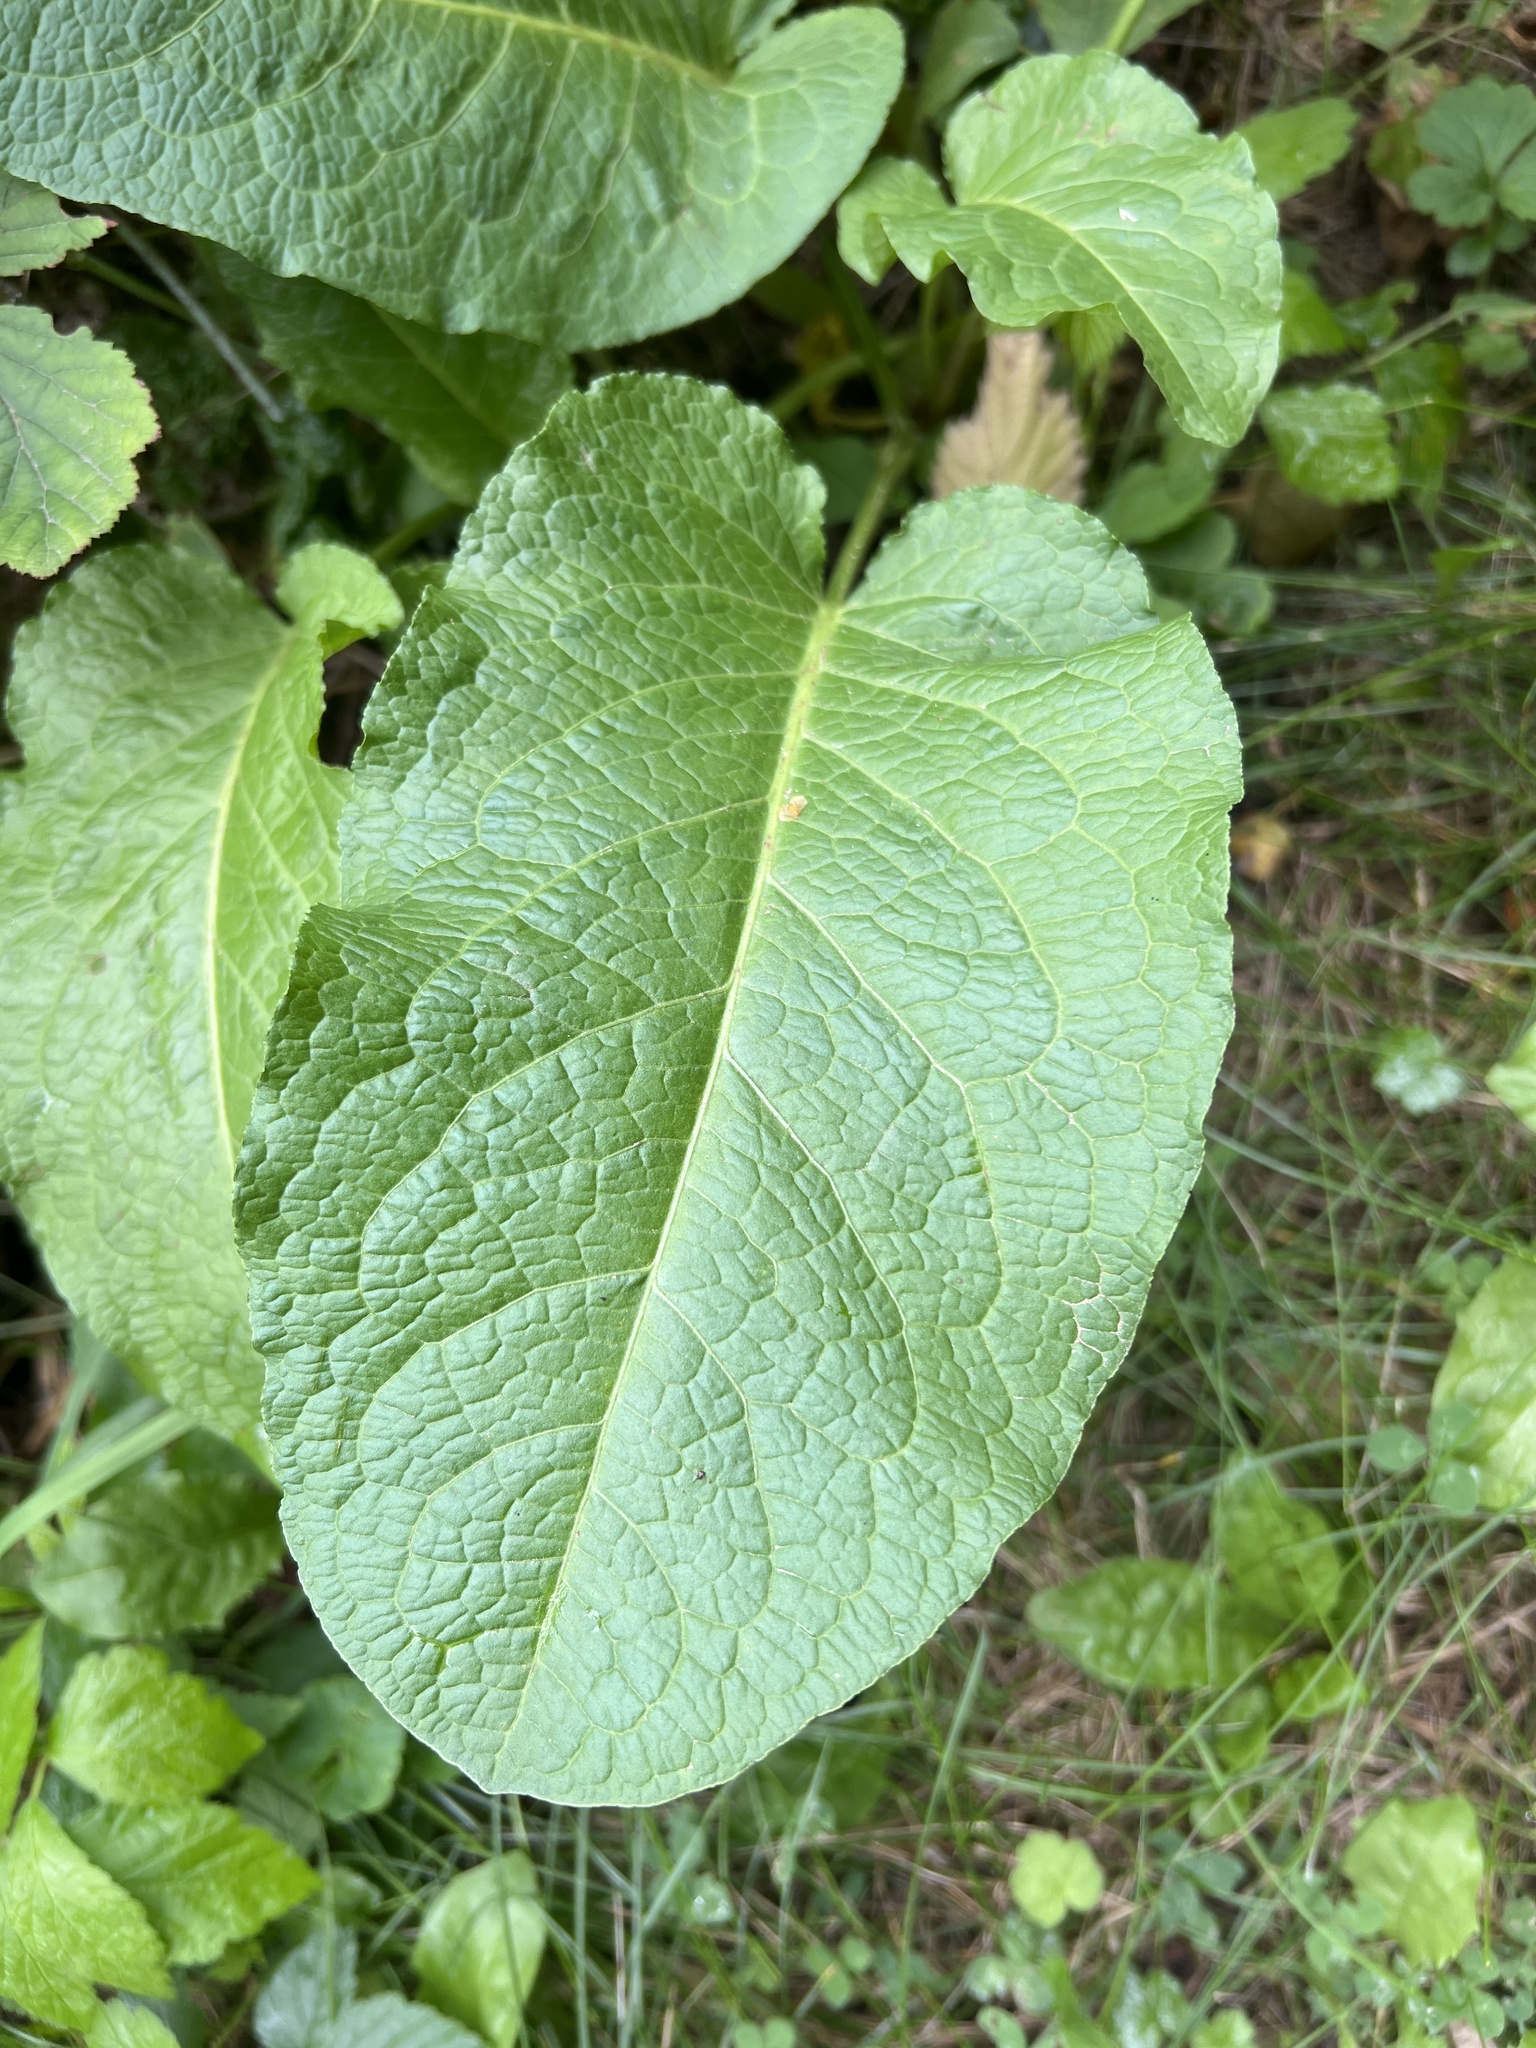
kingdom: Plantae
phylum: Tracheophyta
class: Magnoliopsida
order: Caryophyllales
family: Polygonaceae
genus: Rumex
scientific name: Rumex obtusifolius
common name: Bitter dock
